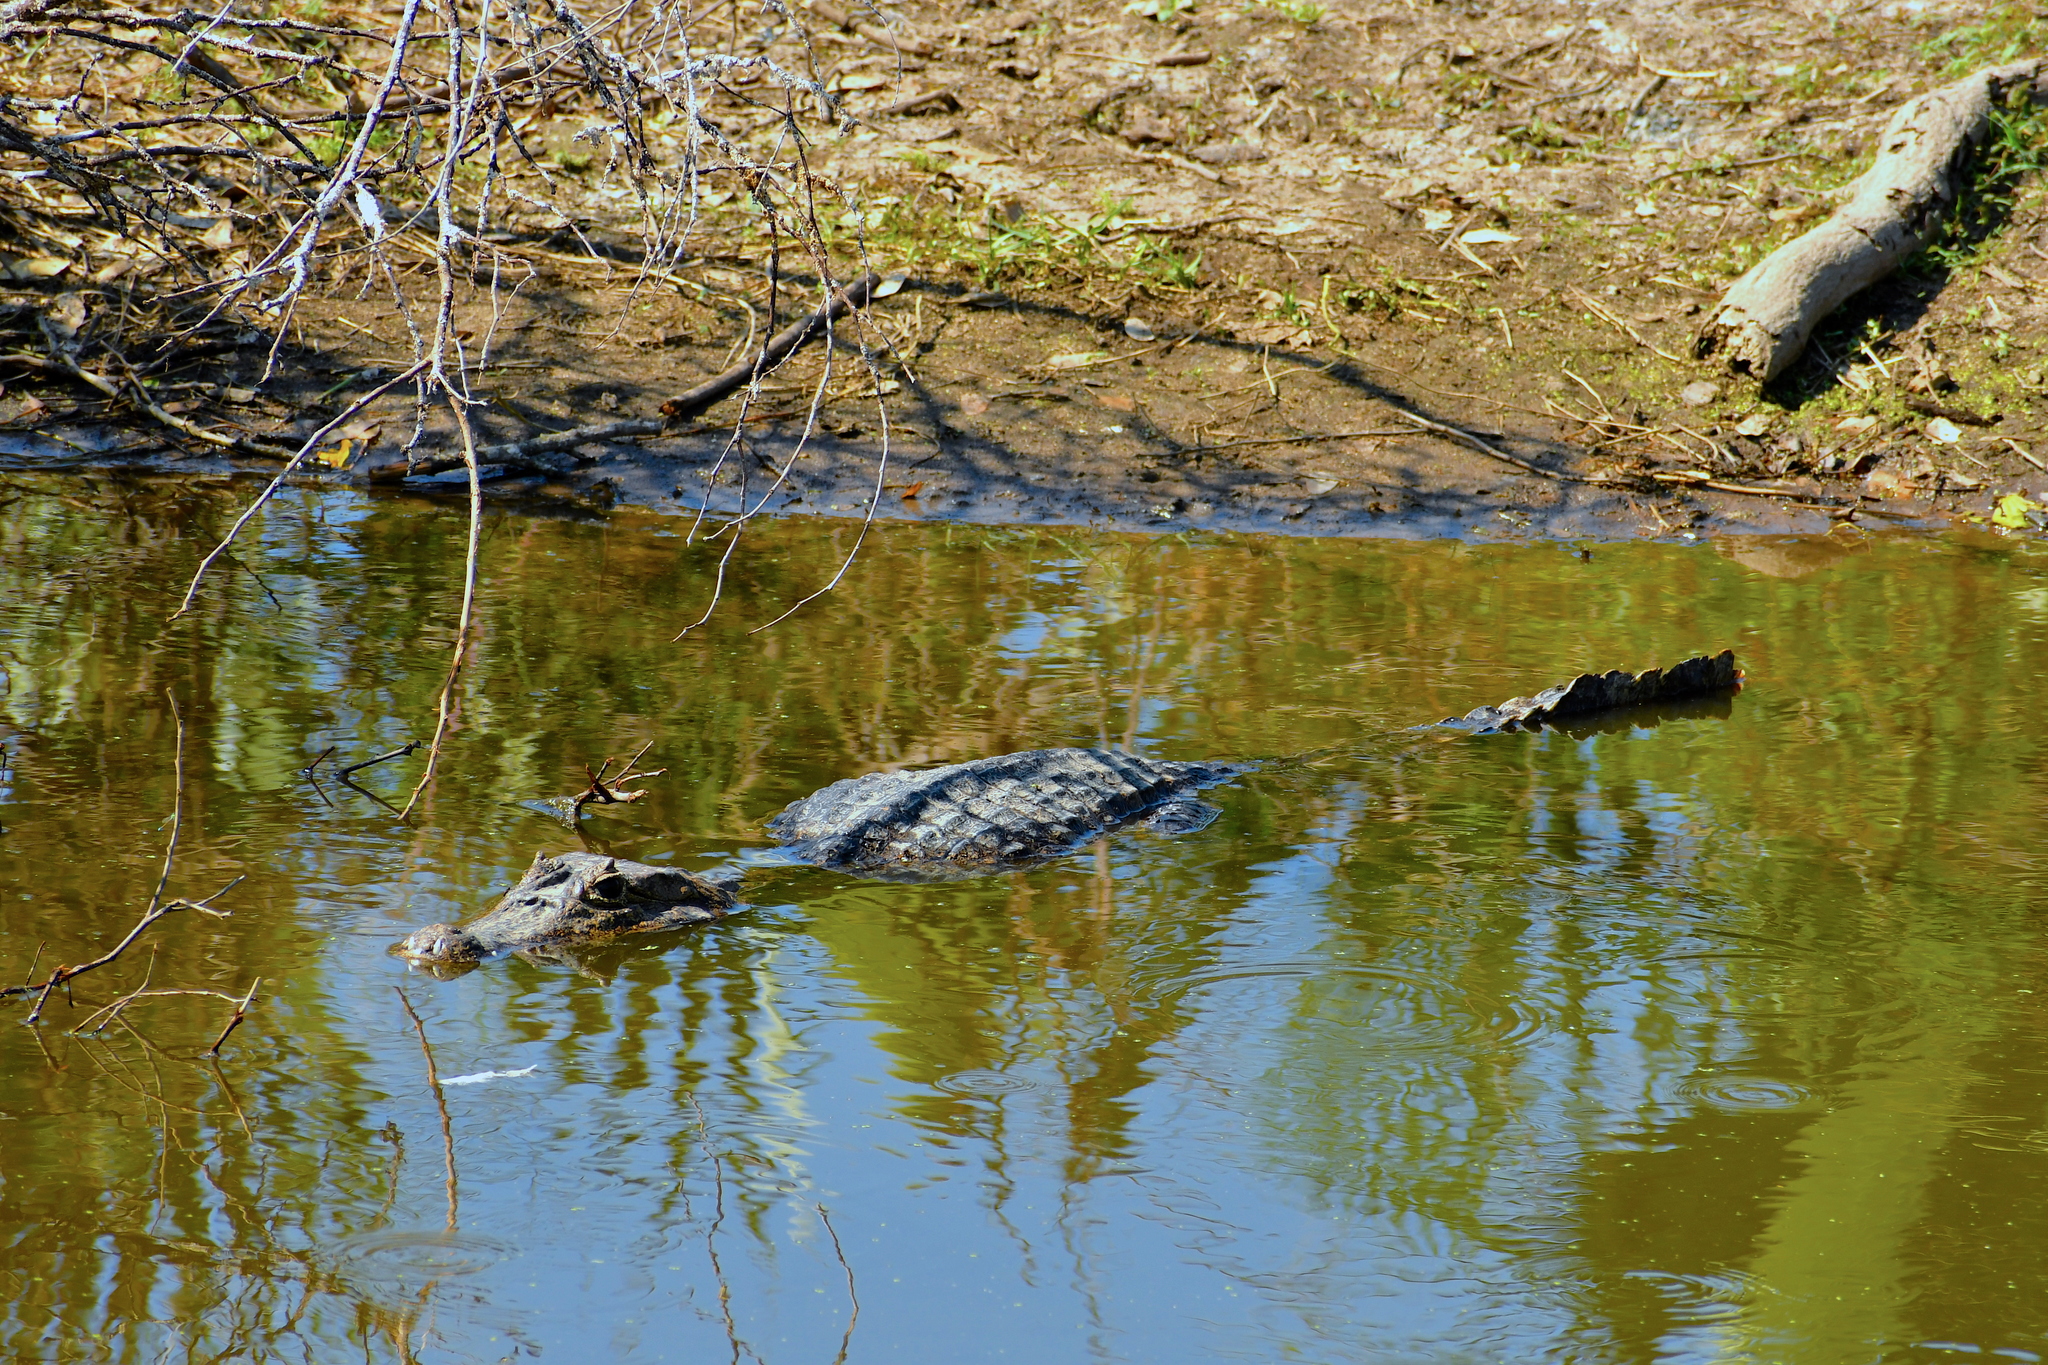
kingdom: Animalia
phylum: Chordata
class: Crocodylia
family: Alligatoridae
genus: Caiman
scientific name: Caiman crocodilus
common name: Common caiman
